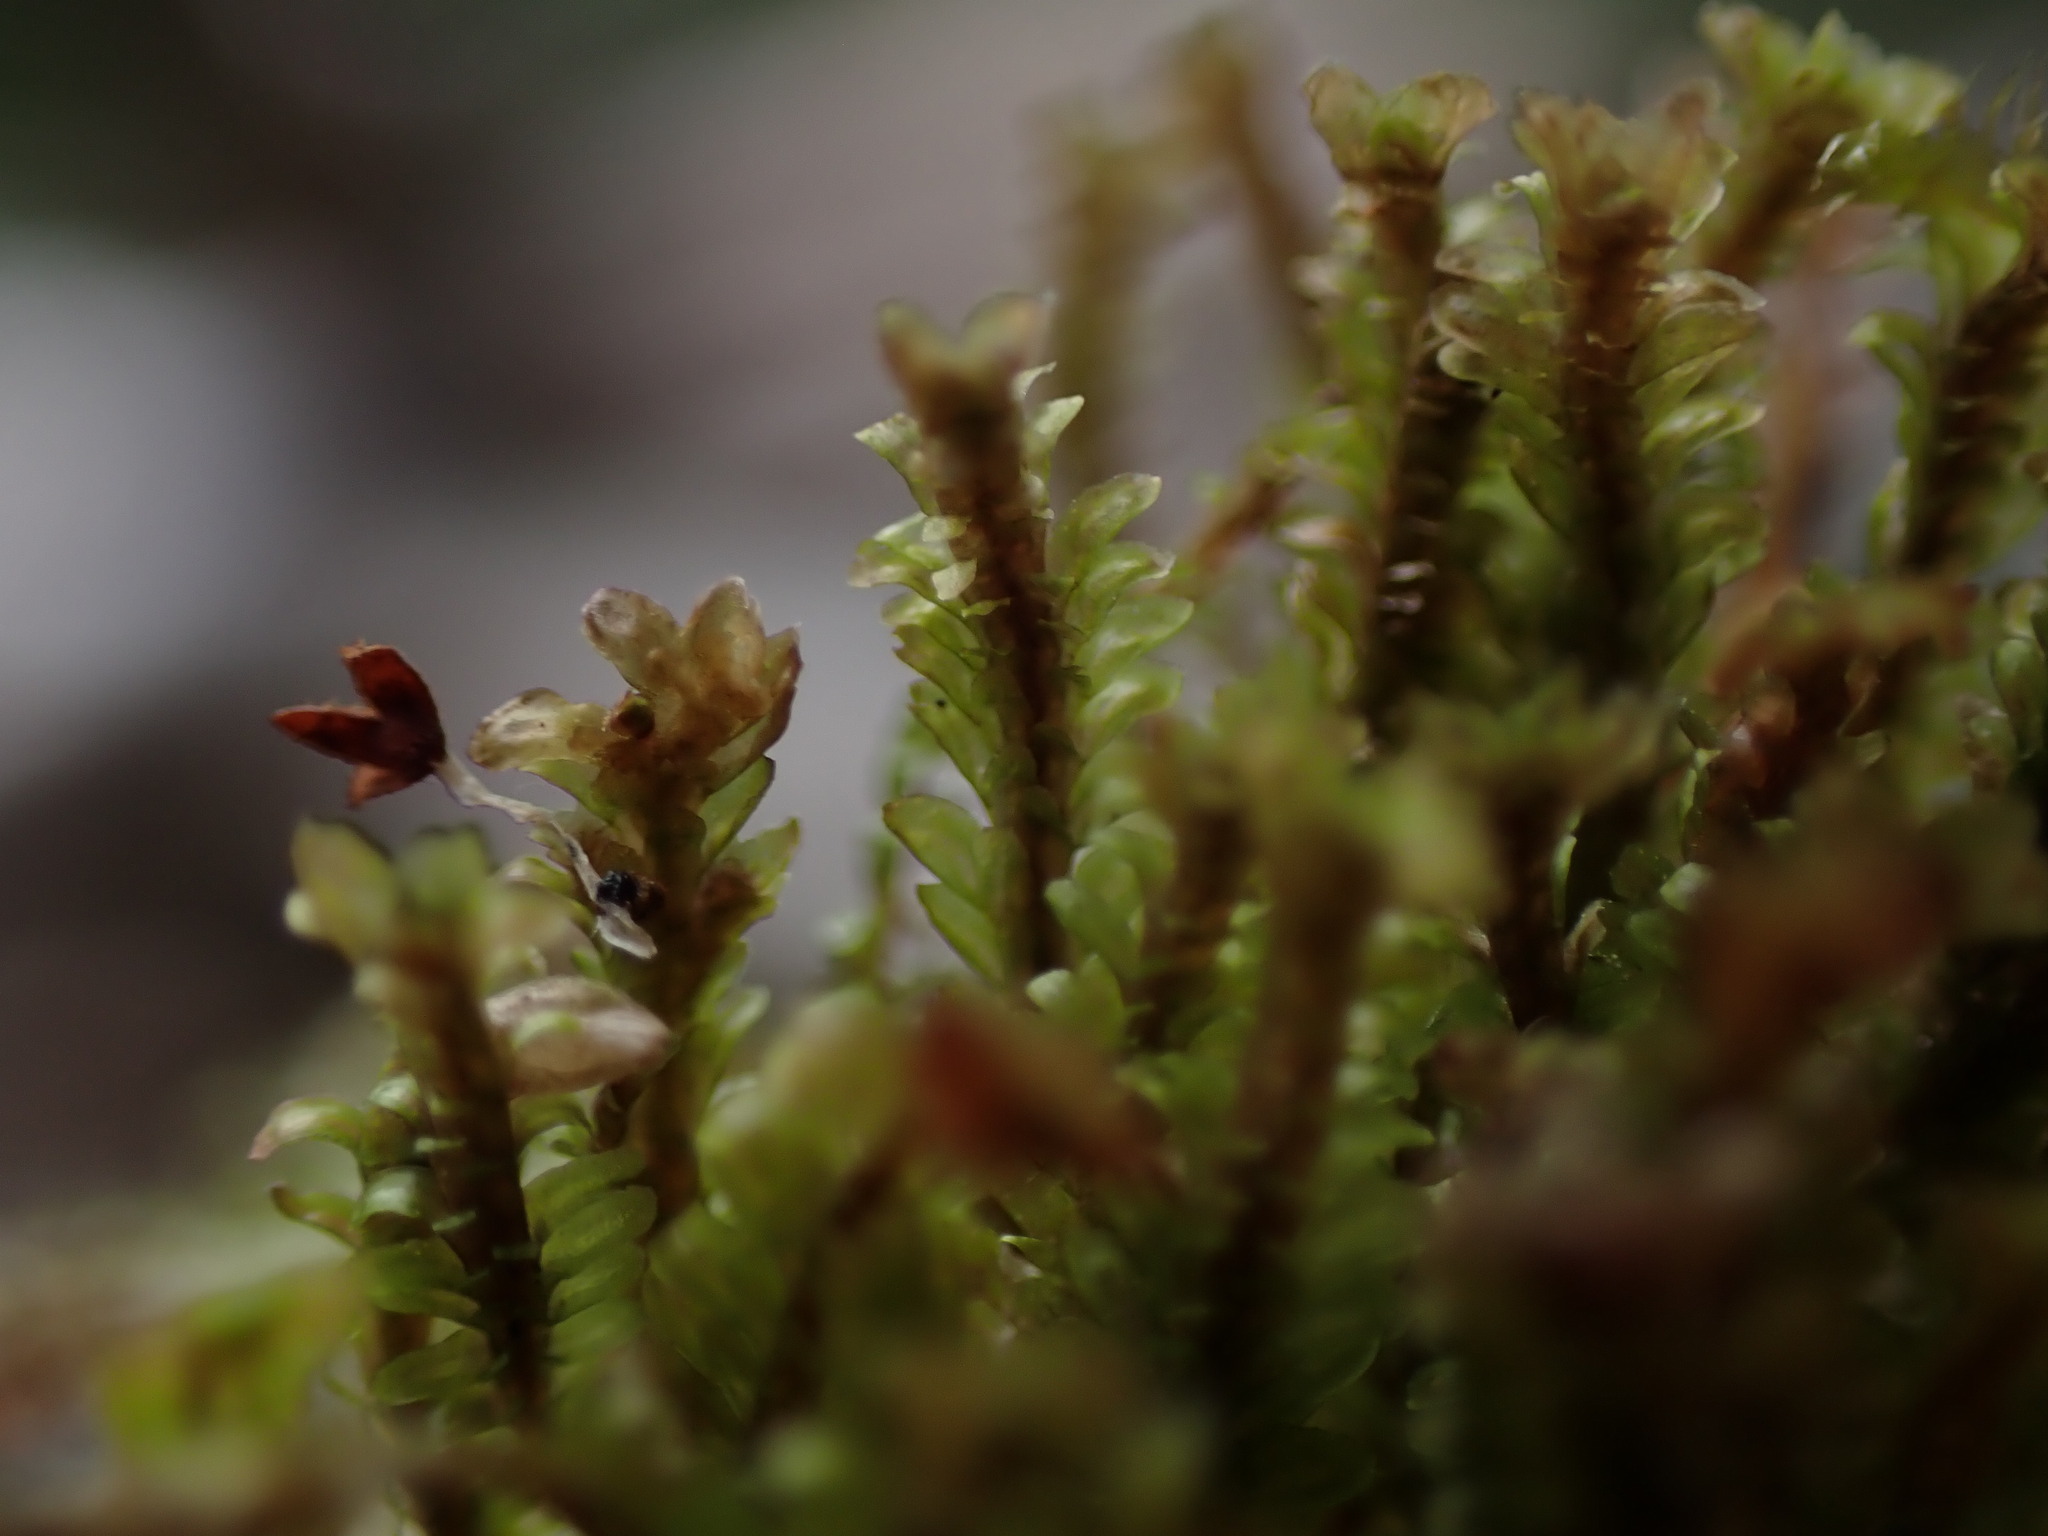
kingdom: Plantae
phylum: Marchantiophyta
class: Jungermanniopsida
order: Jungermanniales
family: Scapaniaceae
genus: Diplophyllum
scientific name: Diplophyllum albicans
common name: White earwort
